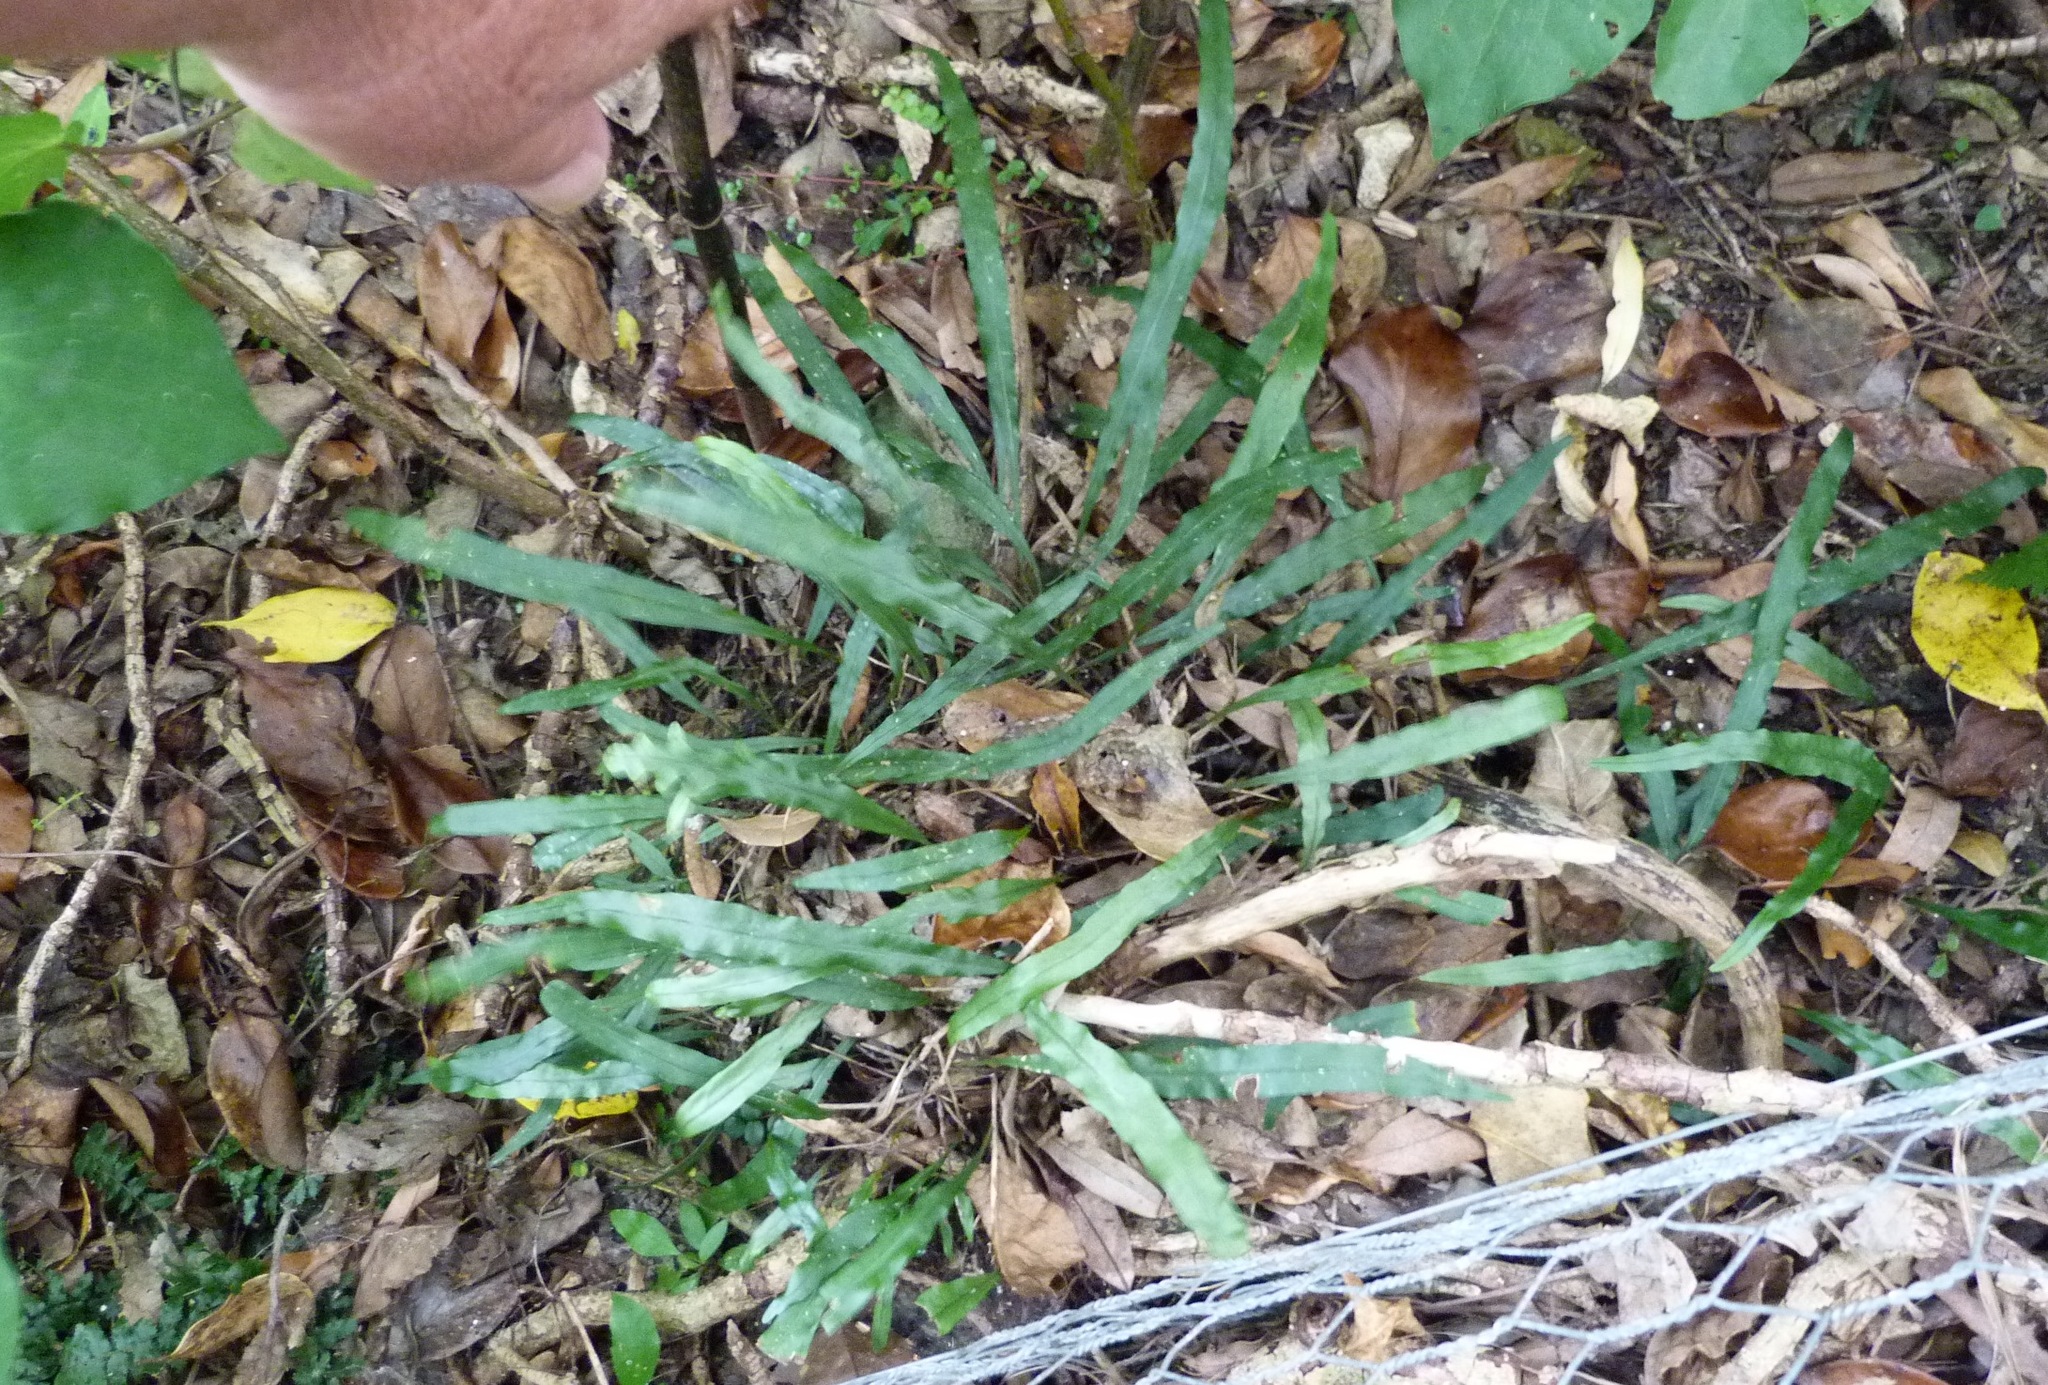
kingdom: Plantae
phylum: Tracheophyta
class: Polypodiopsida
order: Polypodiales
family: Polypodiaceae
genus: Lecanopteris
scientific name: Lecanopteris scandens
